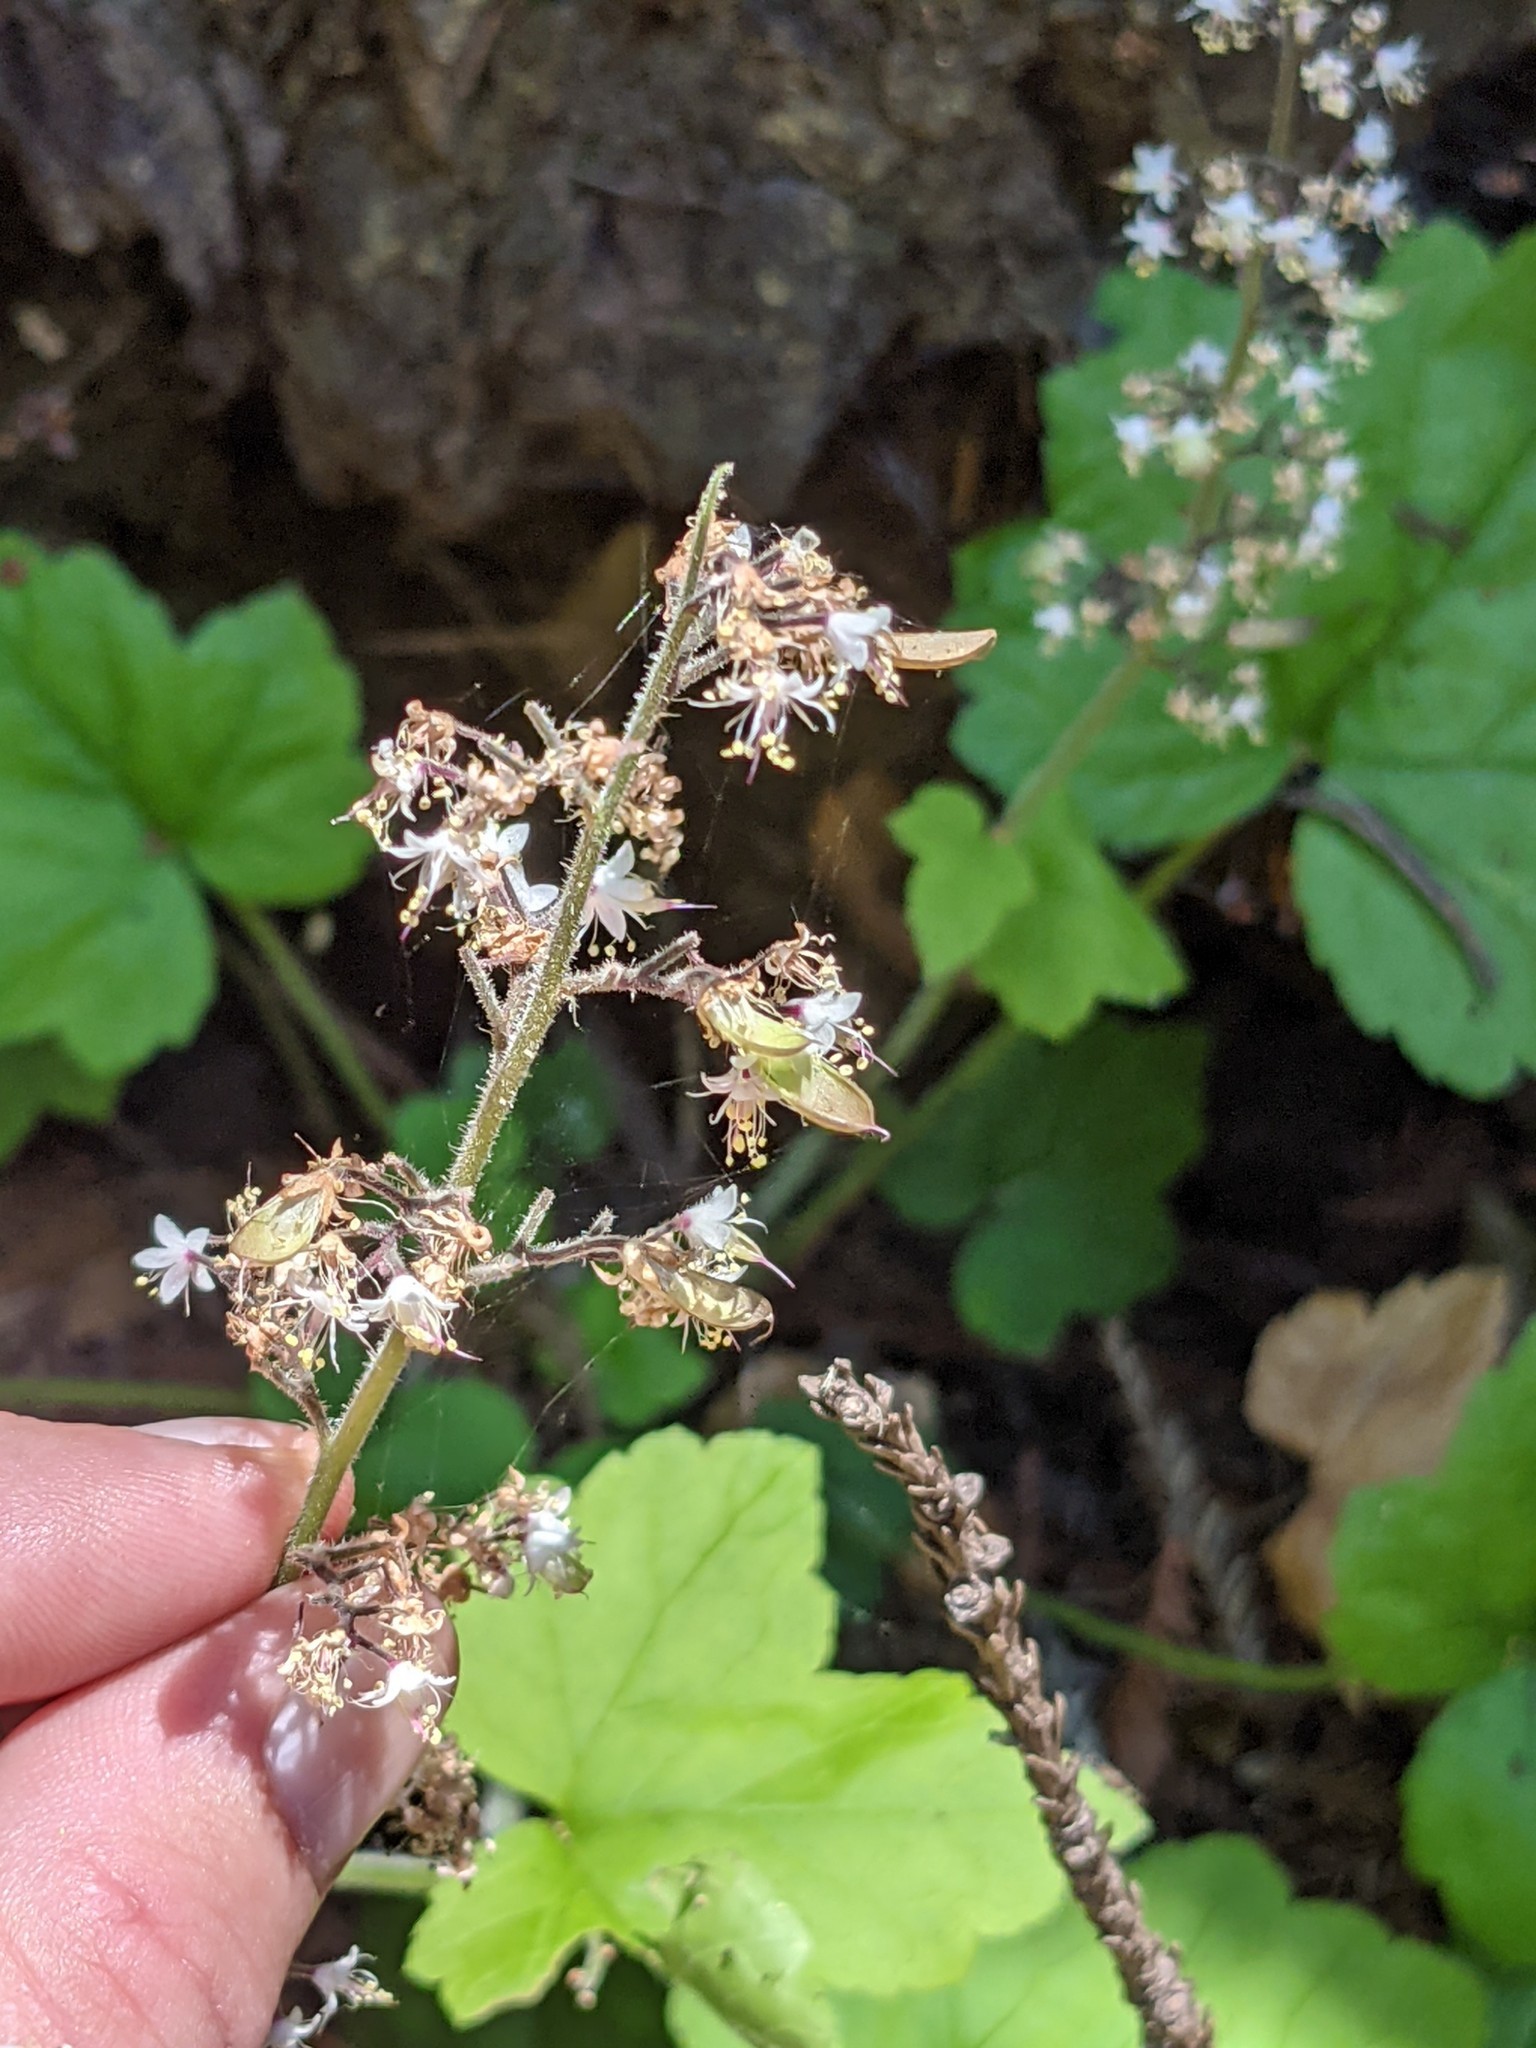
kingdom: Plantae
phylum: Tracheophyta
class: Magnoliopsida
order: Saxifragales
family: Saxifragaceae
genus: Tiarella
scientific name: Tiarella trifoliata
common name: Sugar-scoop
